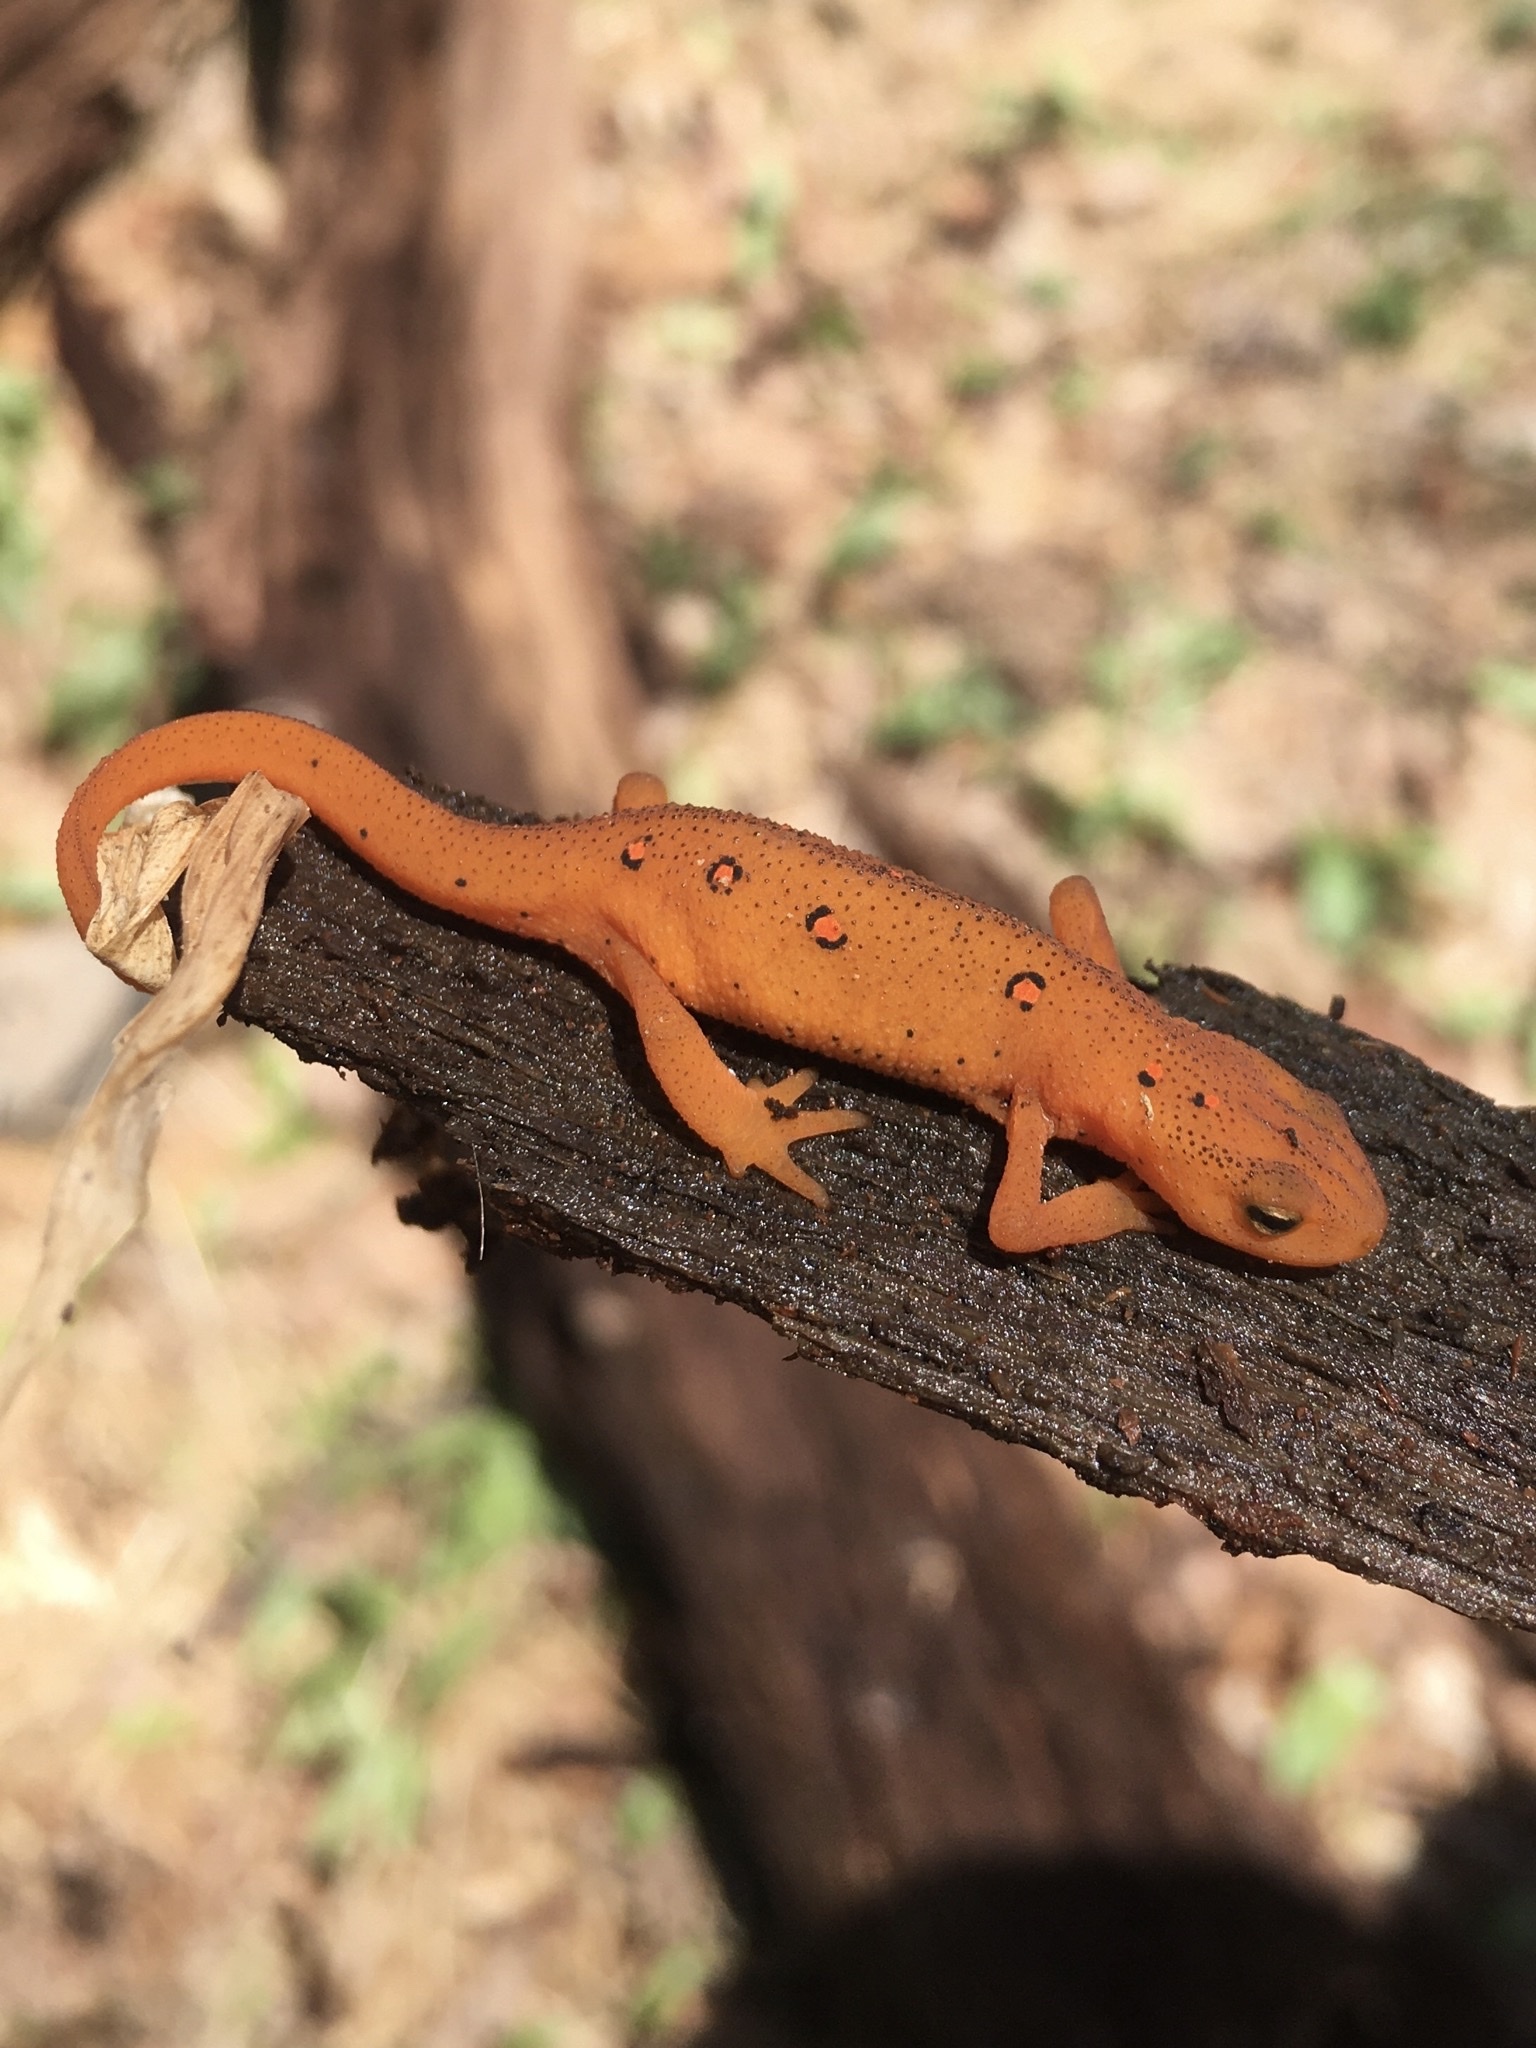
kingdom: Animalia
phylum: Chordata
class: Amphibia
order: Caudata
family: Salamandridae
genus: Notophthalmus
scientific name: Notophthalmus viridescens
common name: Eastern newt
